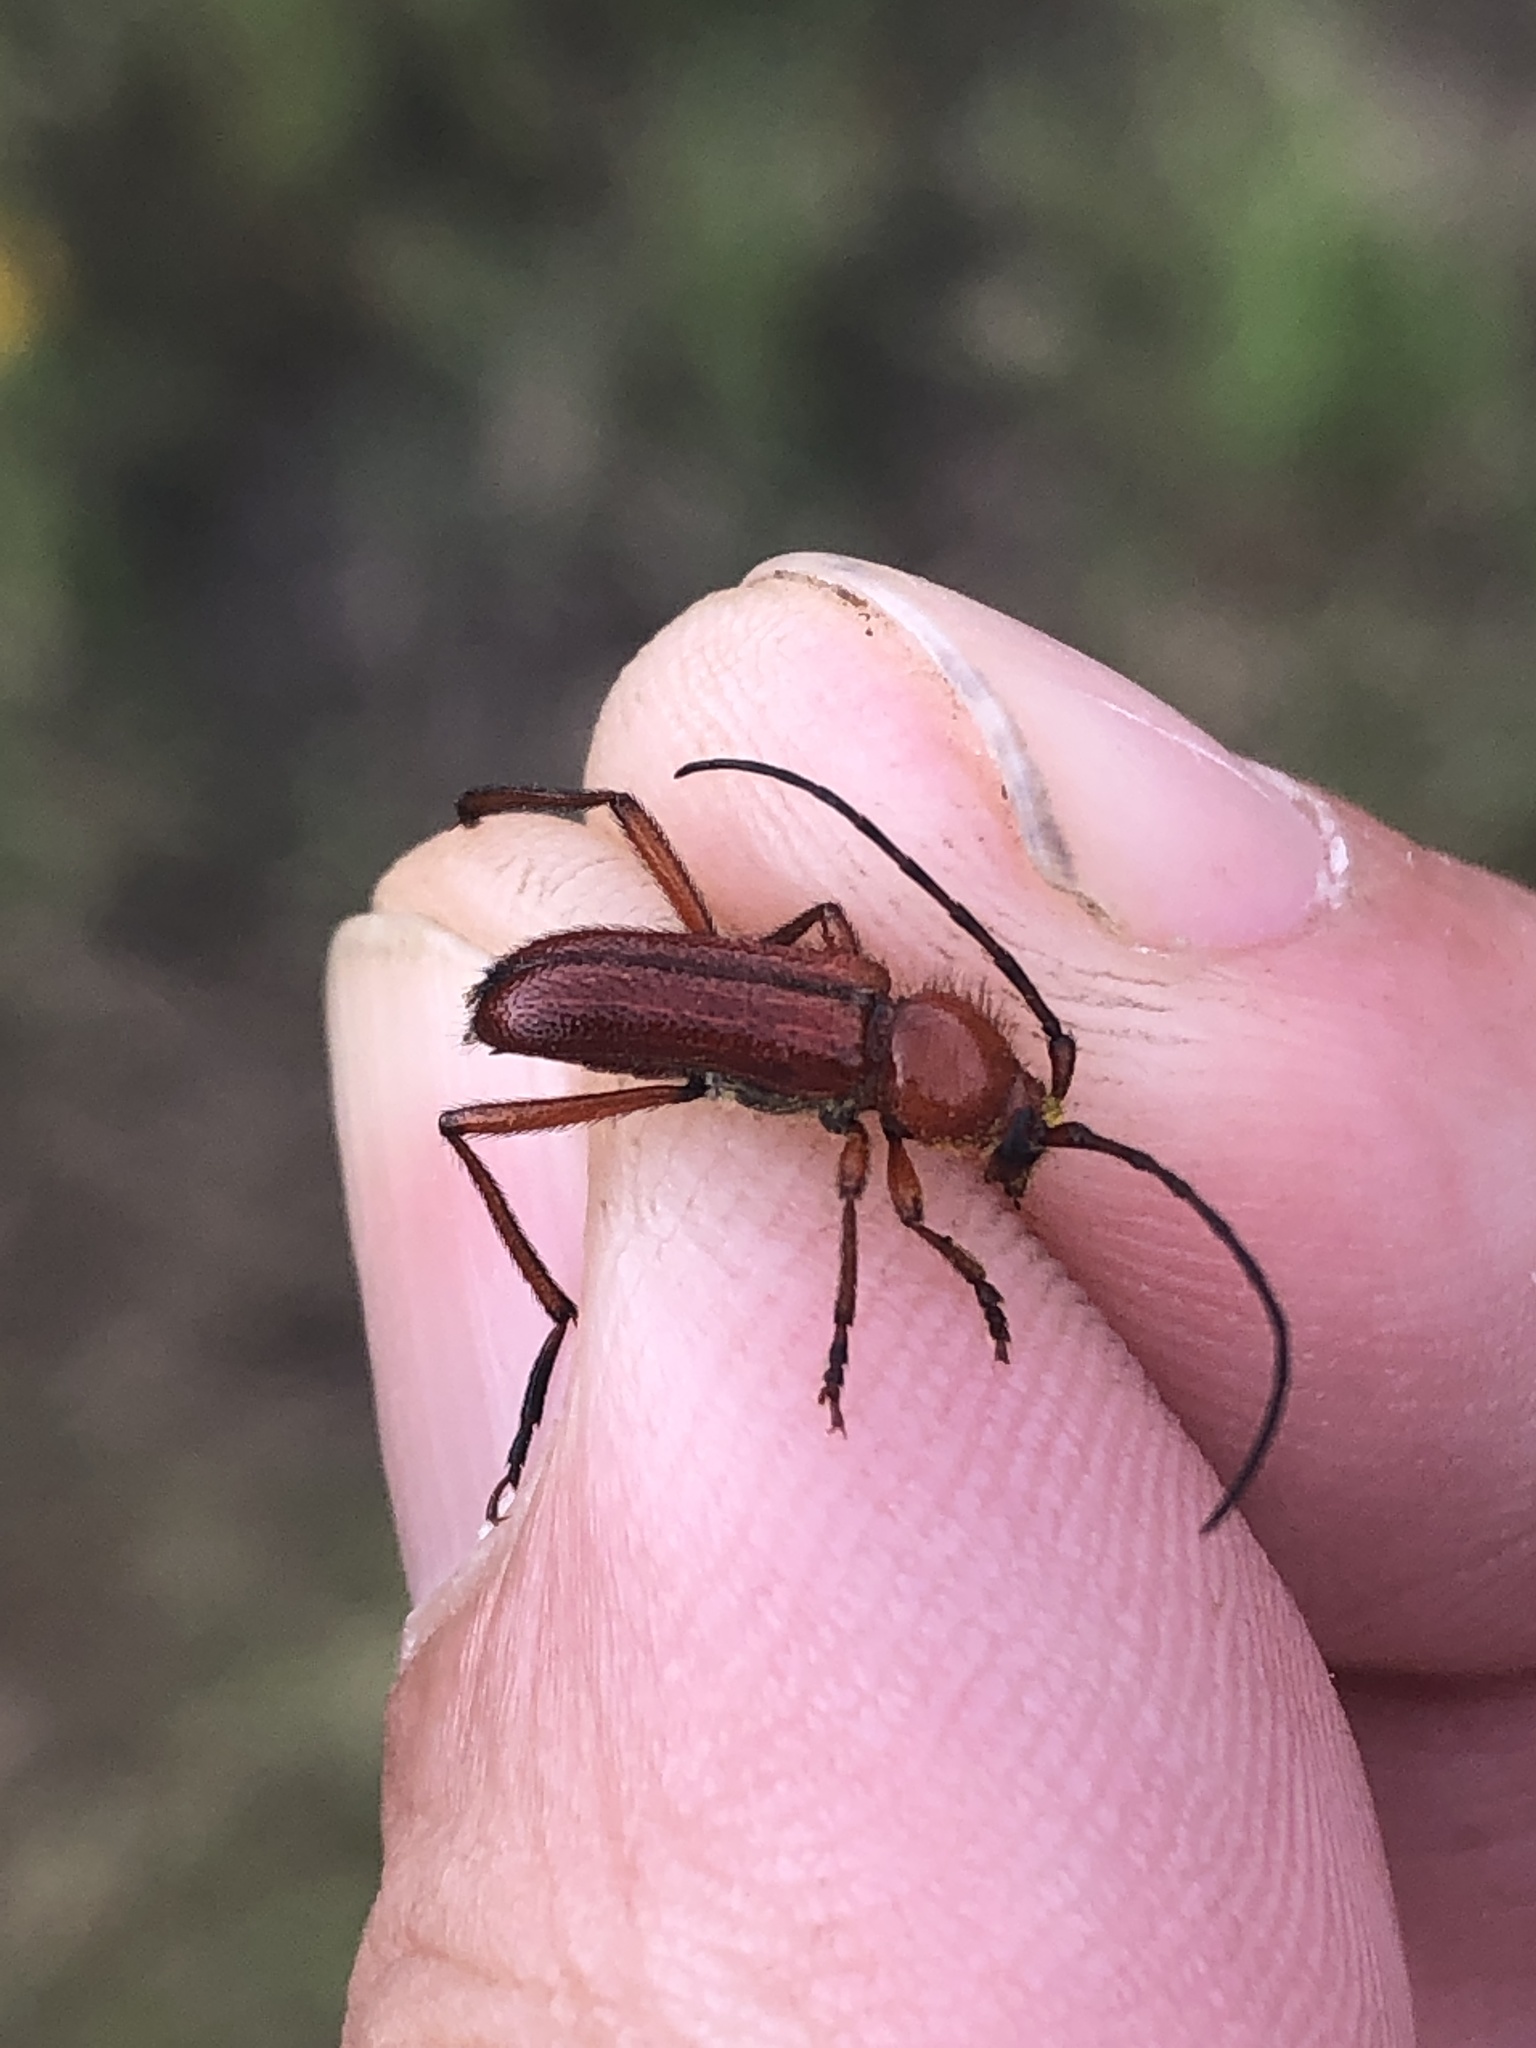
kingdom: Animalia
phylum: Arthropoda
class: Insecta
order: Coleoptera
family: Cerambycidae
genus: Batyle
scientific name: Batyle suturalis
